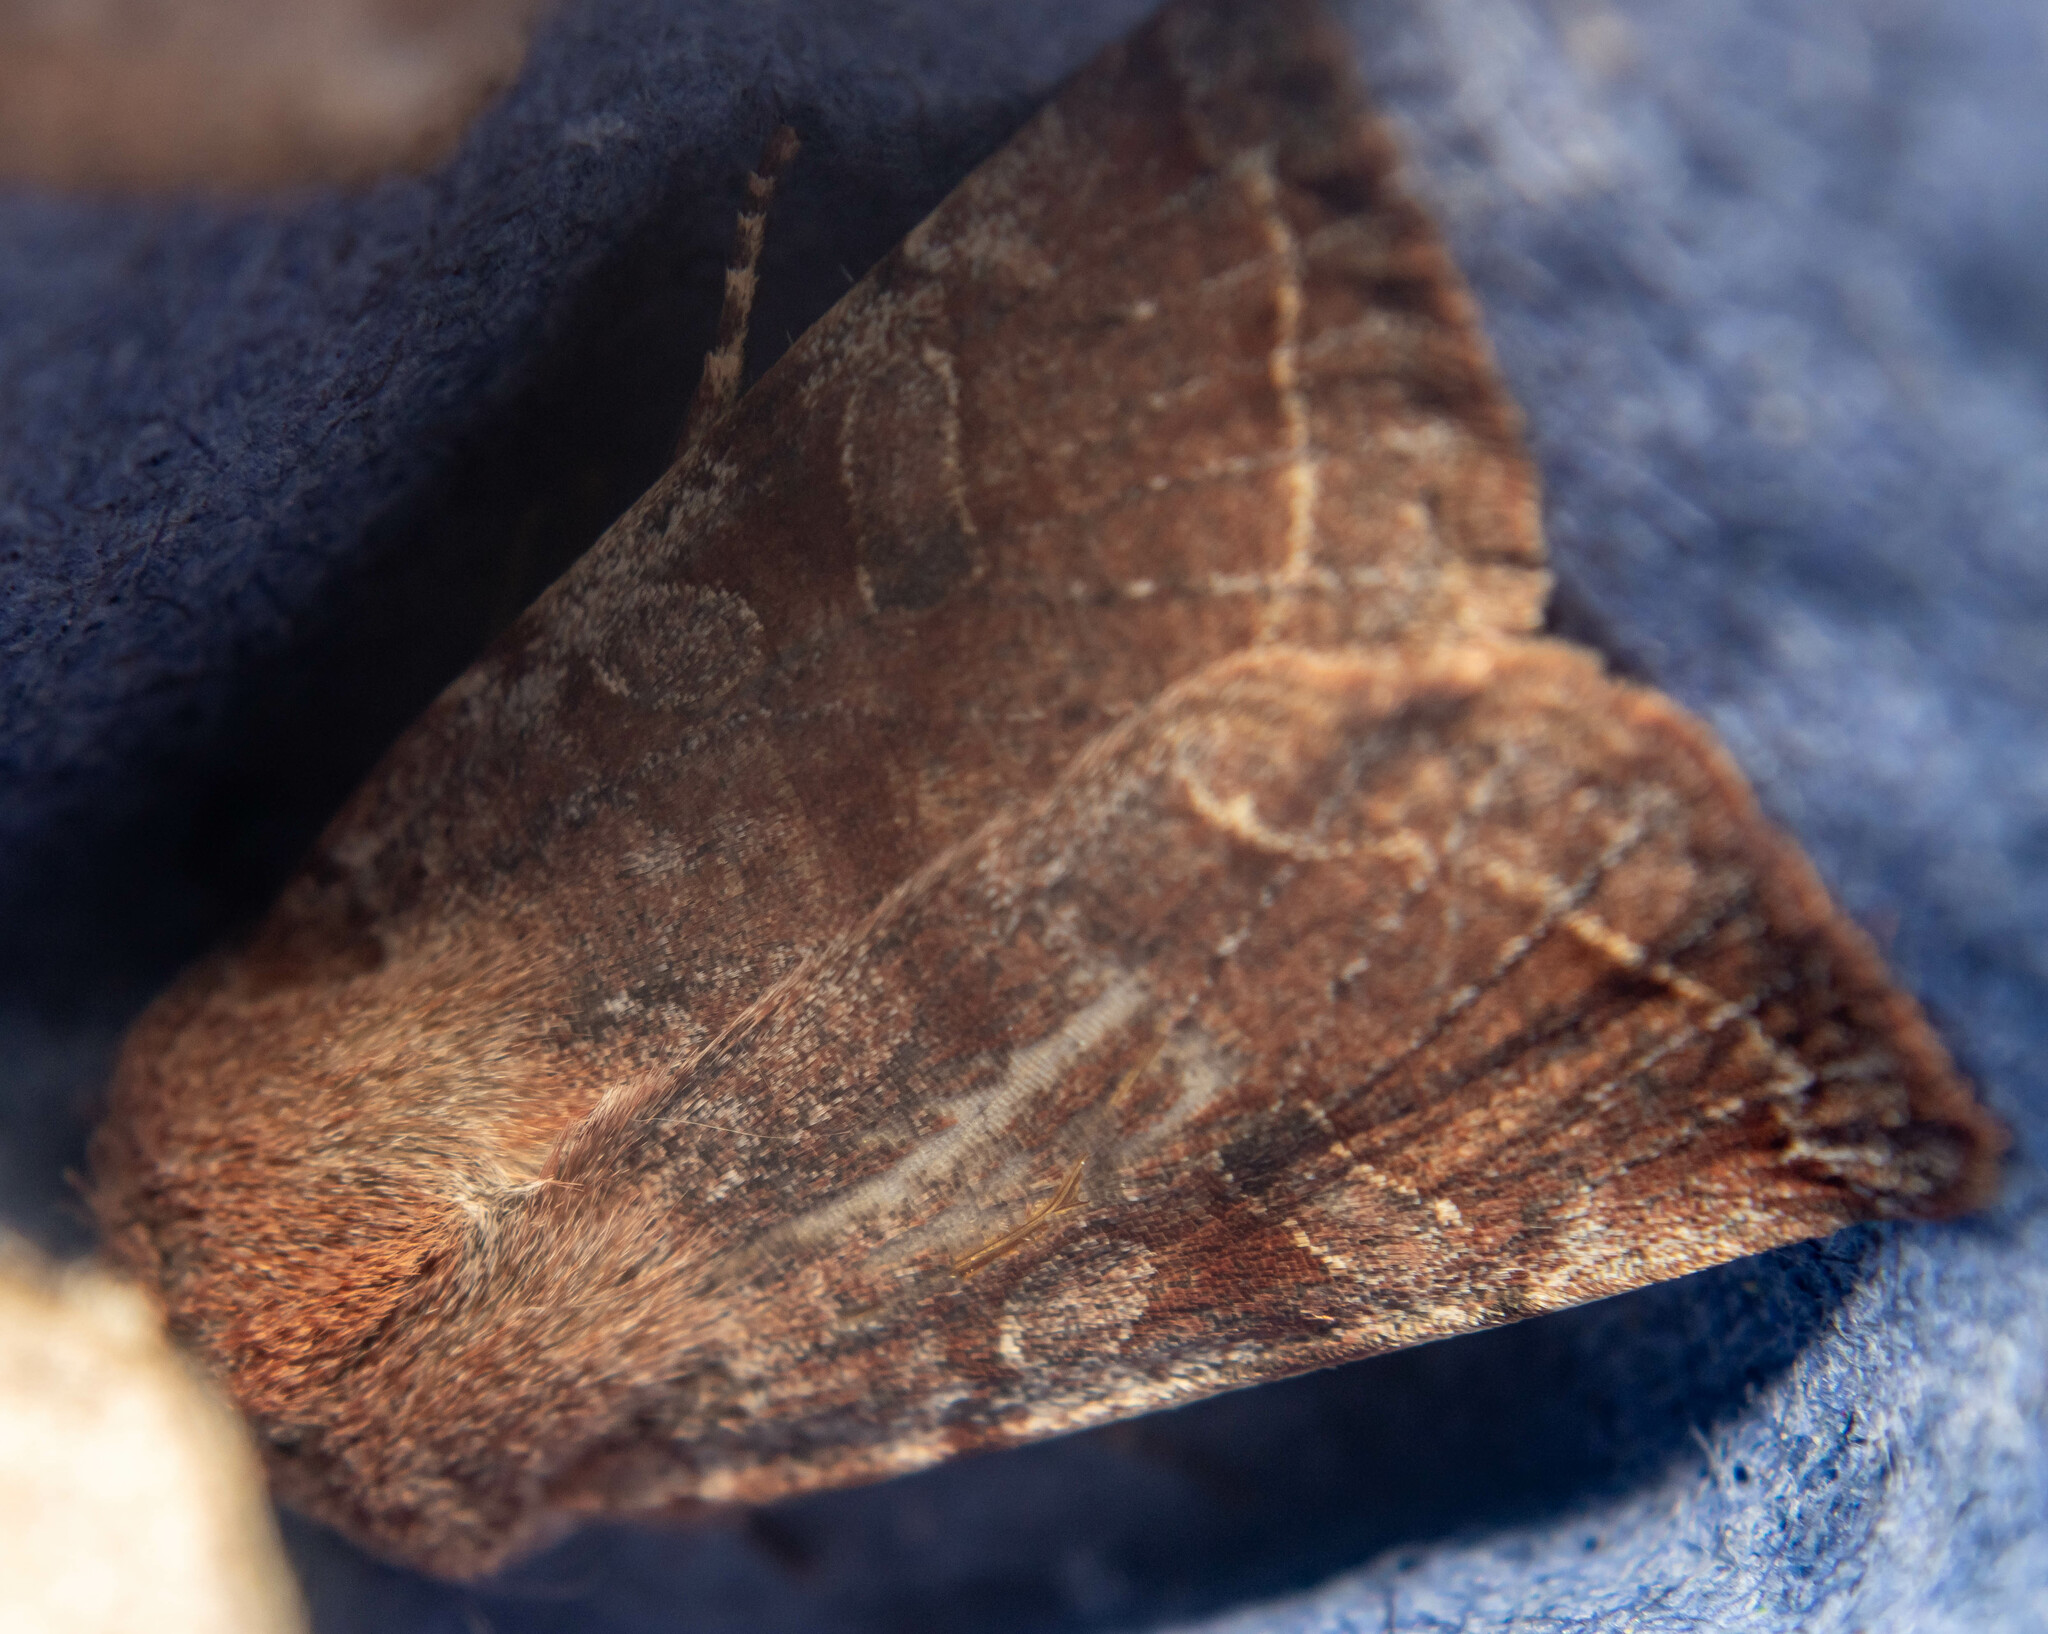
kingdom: Animalia
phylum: Arthropoda
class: Insecta
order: Lepidoptera
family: Noctuidae
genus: Orthosia
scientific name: Orthosia incerta
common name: Clouded drab
